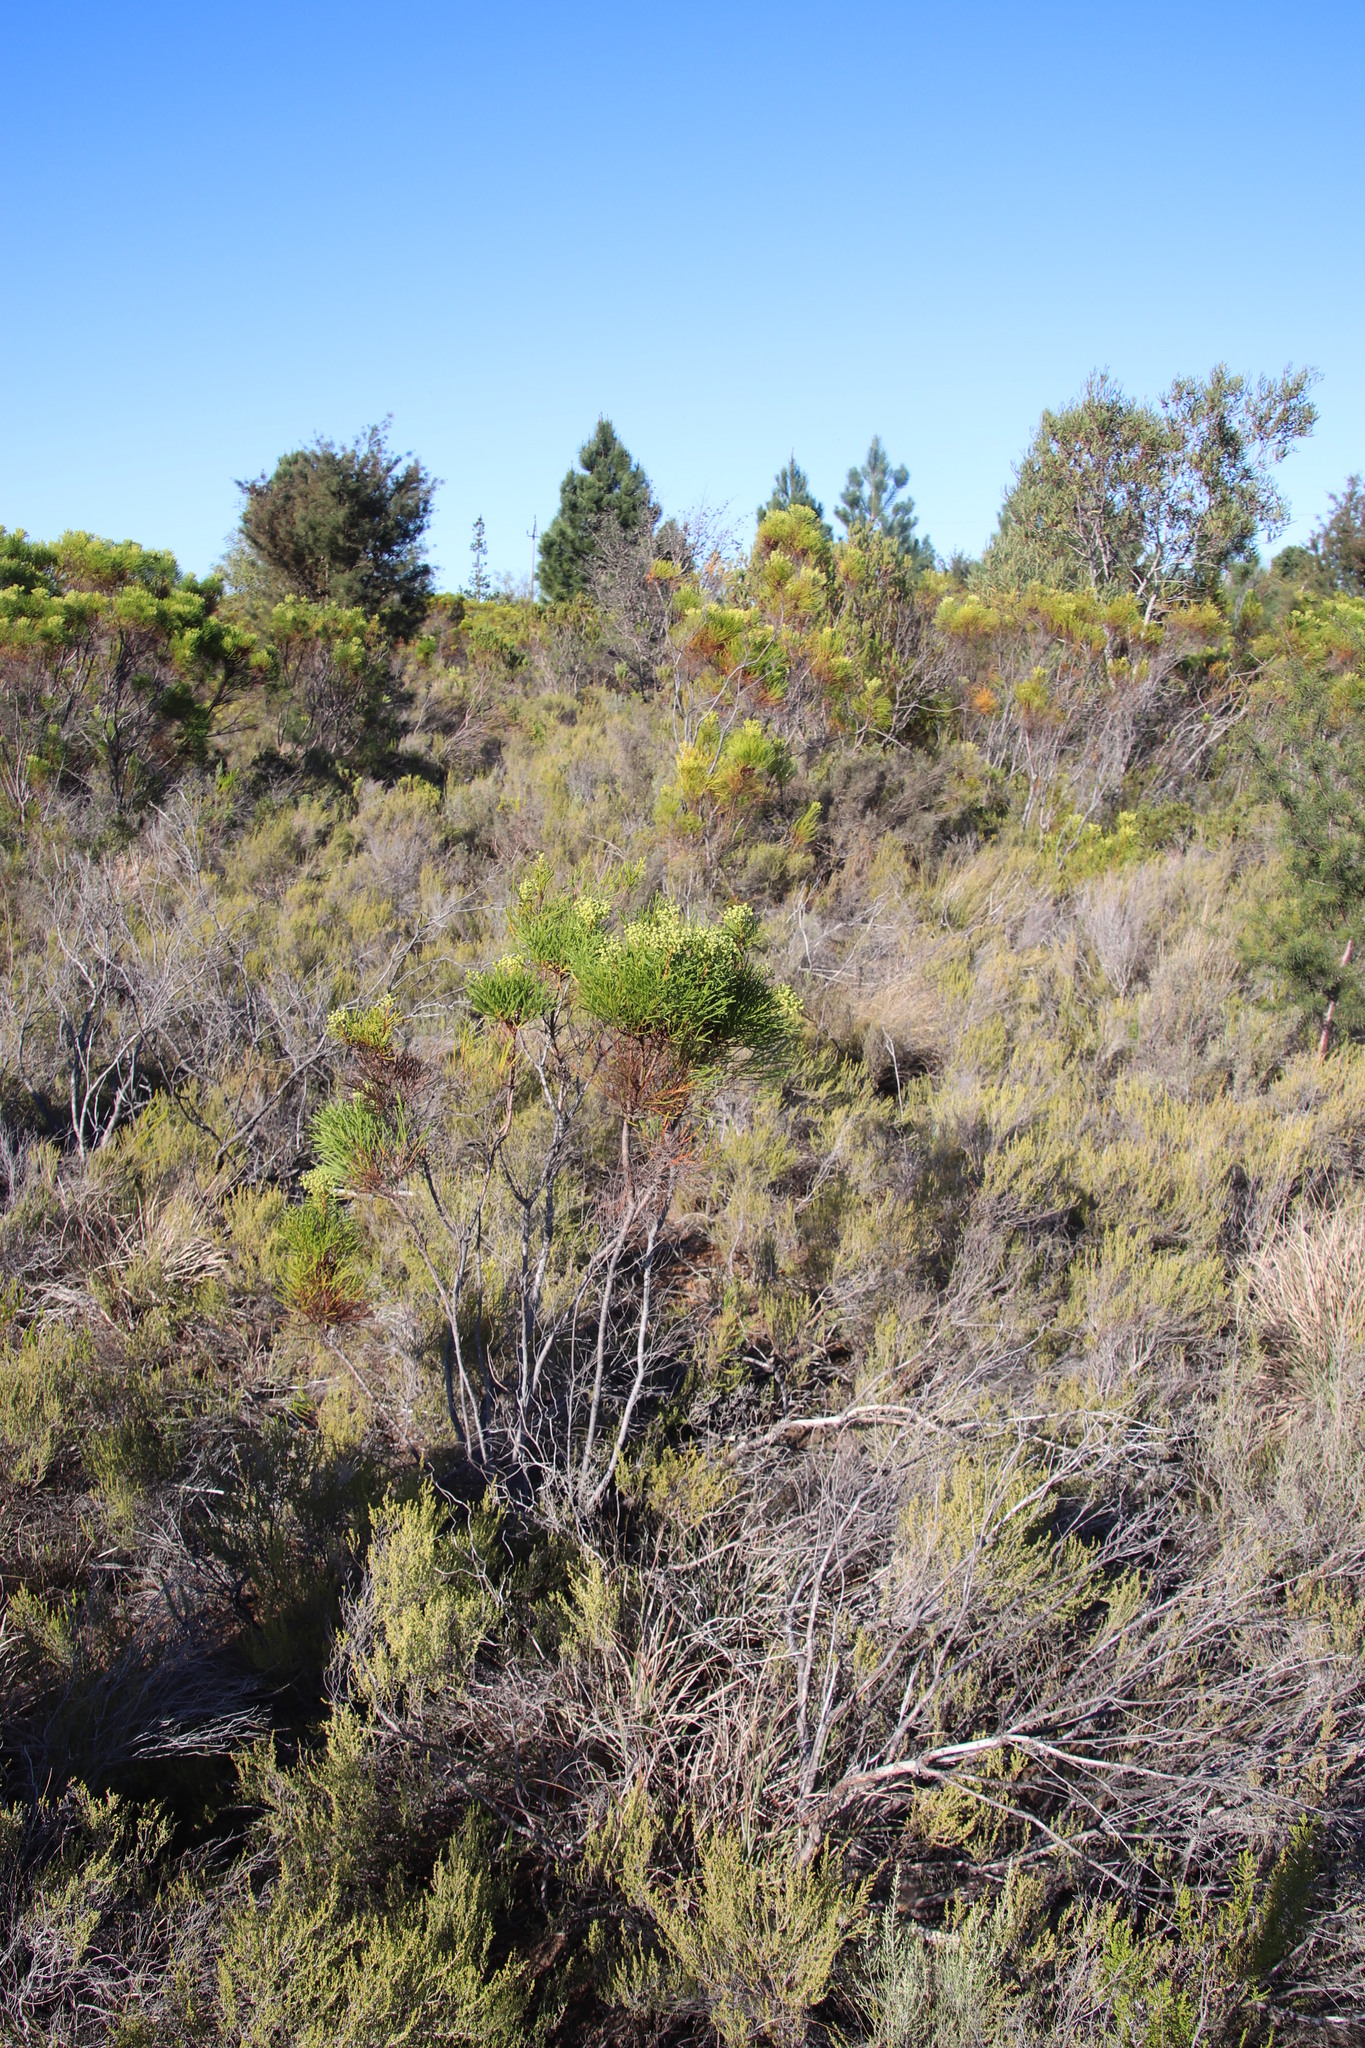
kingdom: Plantae
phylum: Tracheophyta
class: Magnoliopsida
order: Bruniales
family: Bruniaceae
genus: Berzelia
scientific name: Berzelia lanuginosa
